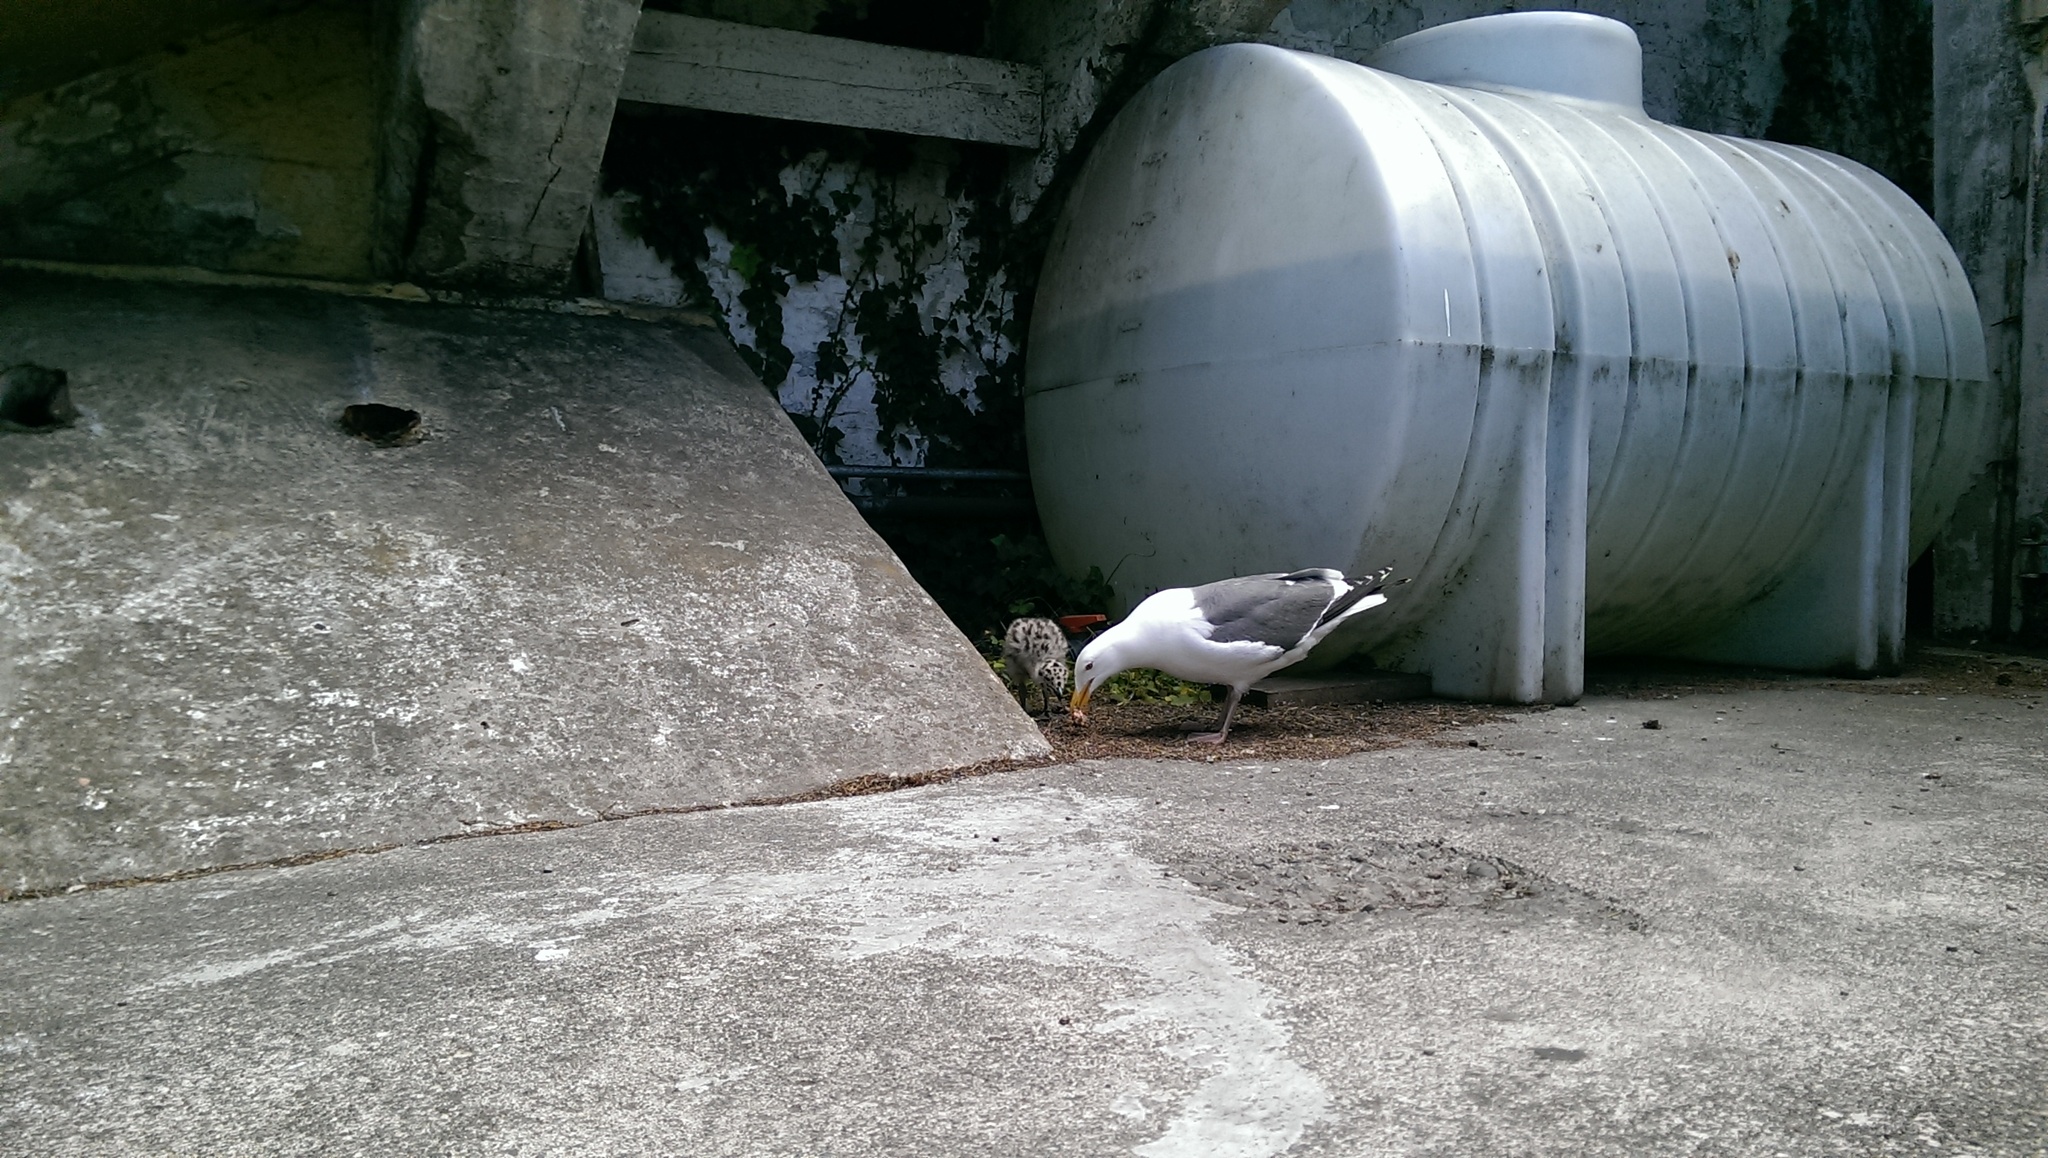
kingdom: Animalia
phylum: Chordata
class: Aves
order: Charadriiformes
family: Laridae
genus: Larus
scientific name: Larus occidentalis
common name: Western gull
